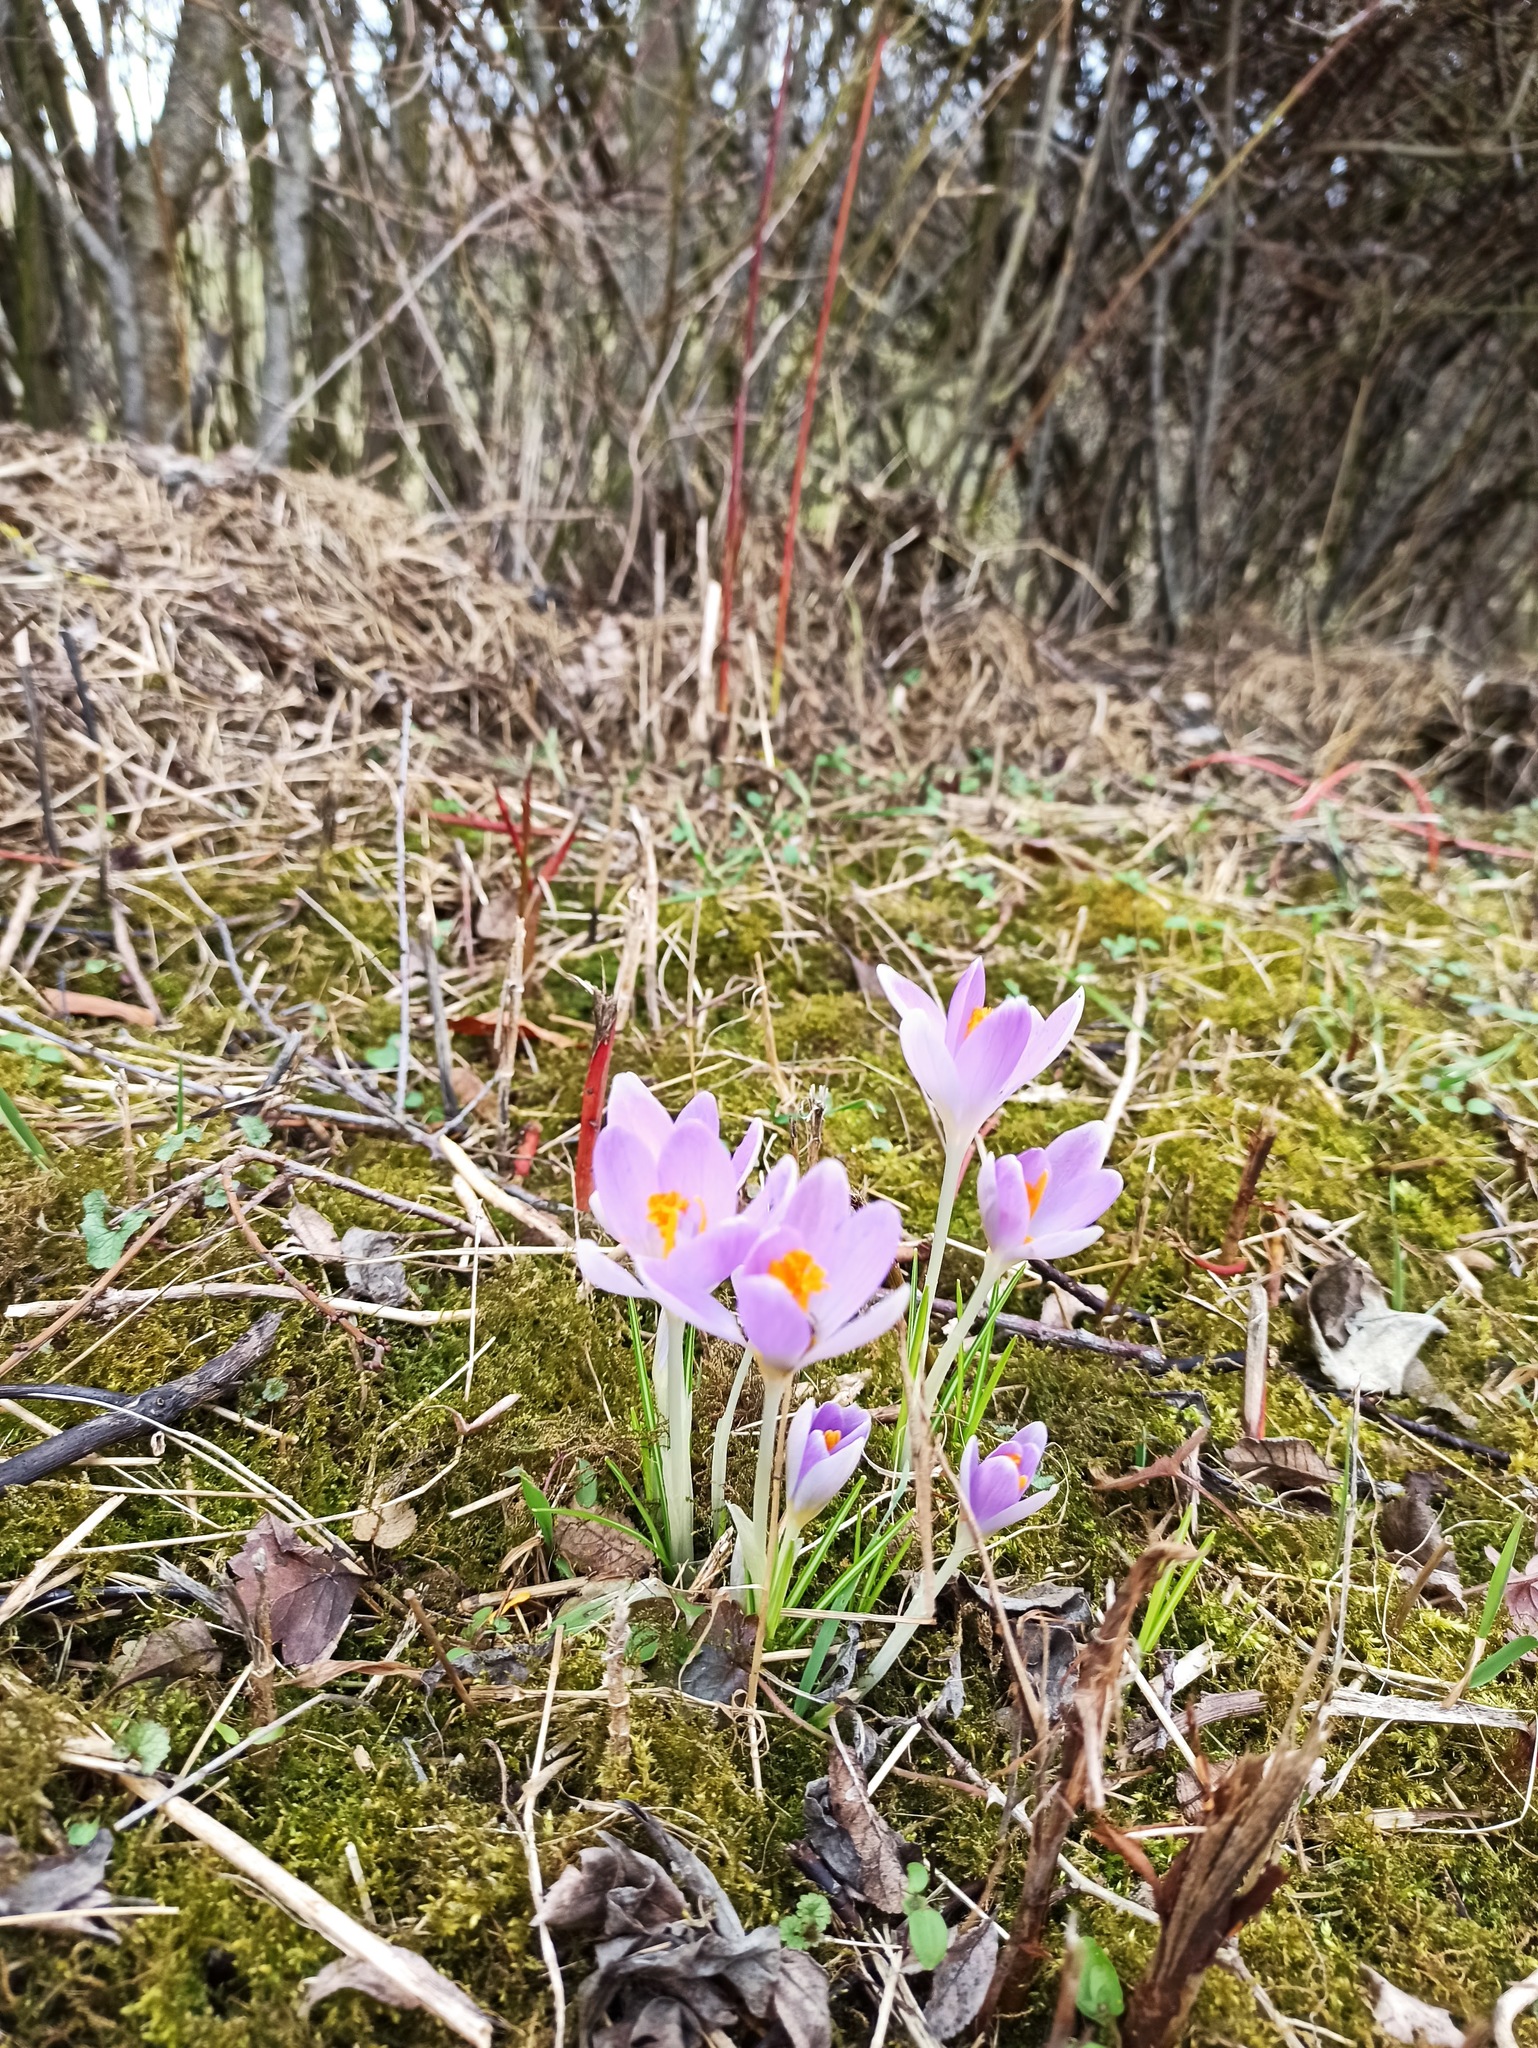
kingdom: Plantae
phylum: Tracheophyta
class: Liliopsida
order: Asparagales
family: Iridaceae
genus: Crocus
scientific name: Crocus tommasinianus
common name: Early crocus
